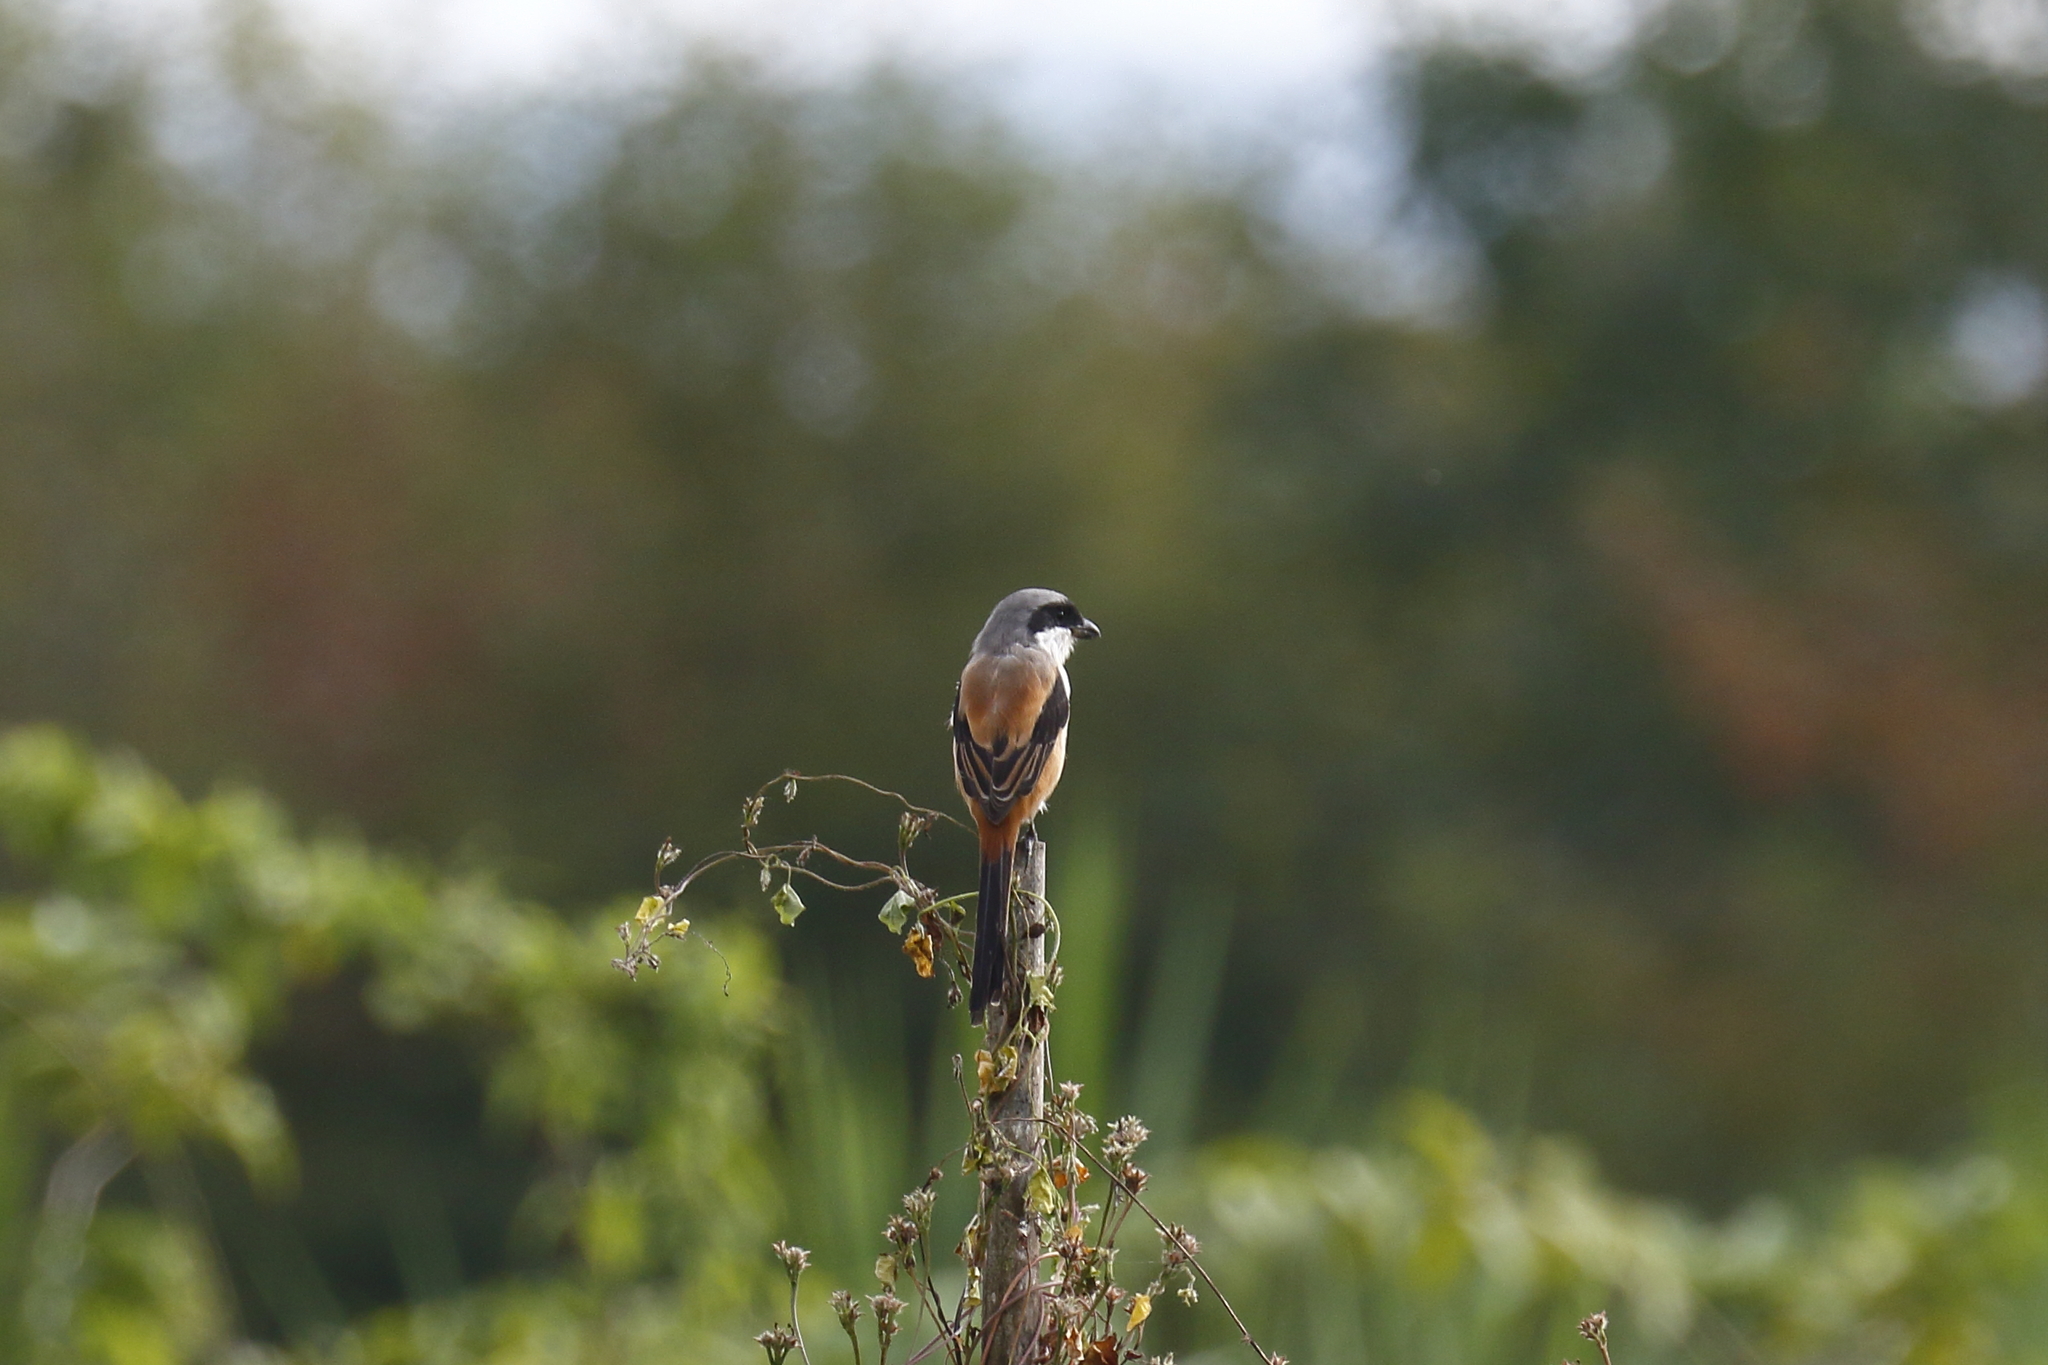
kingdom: Animalia
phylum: Chordata
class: Aves
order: Passeriformes
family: Laniidae
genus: Lanius
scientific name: Lanius schach
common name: Long-tailed shrike
